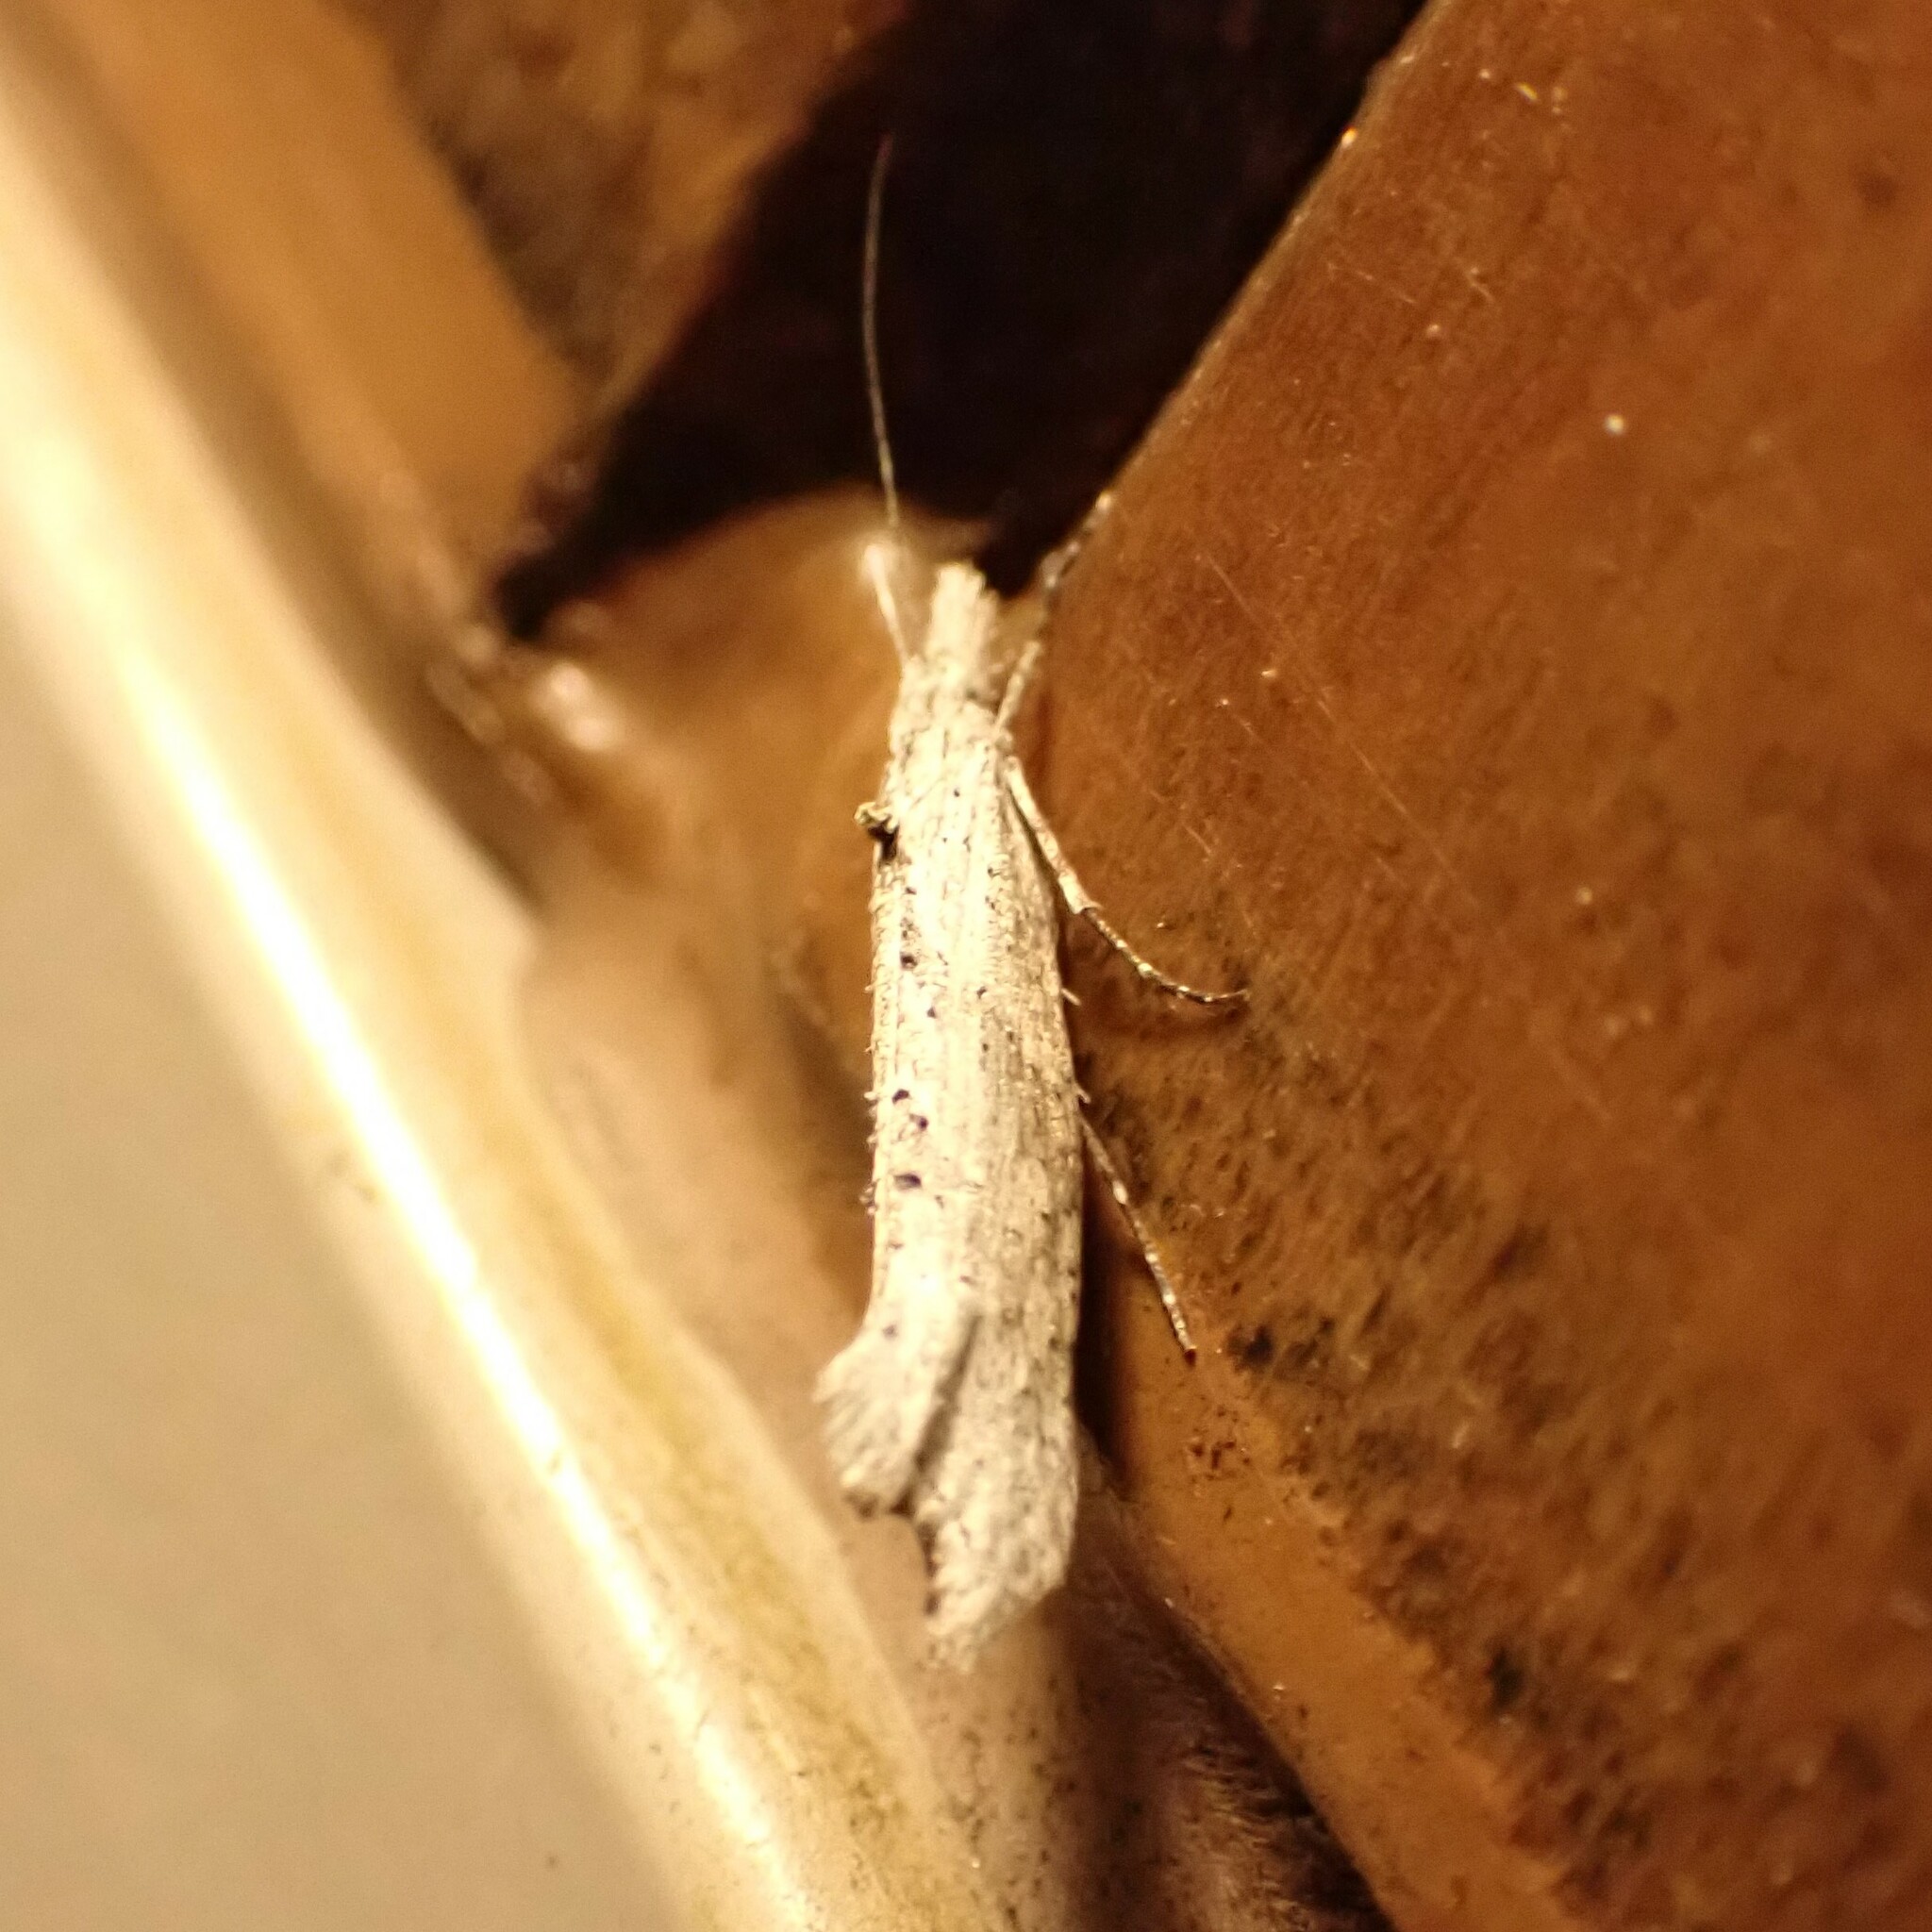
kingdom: Animalia
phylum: Arthropoda
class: Insecta
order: Lepidoptera
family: Ypsolophidae
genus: Ypsolopha
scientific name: Ypsolopha falciferella
